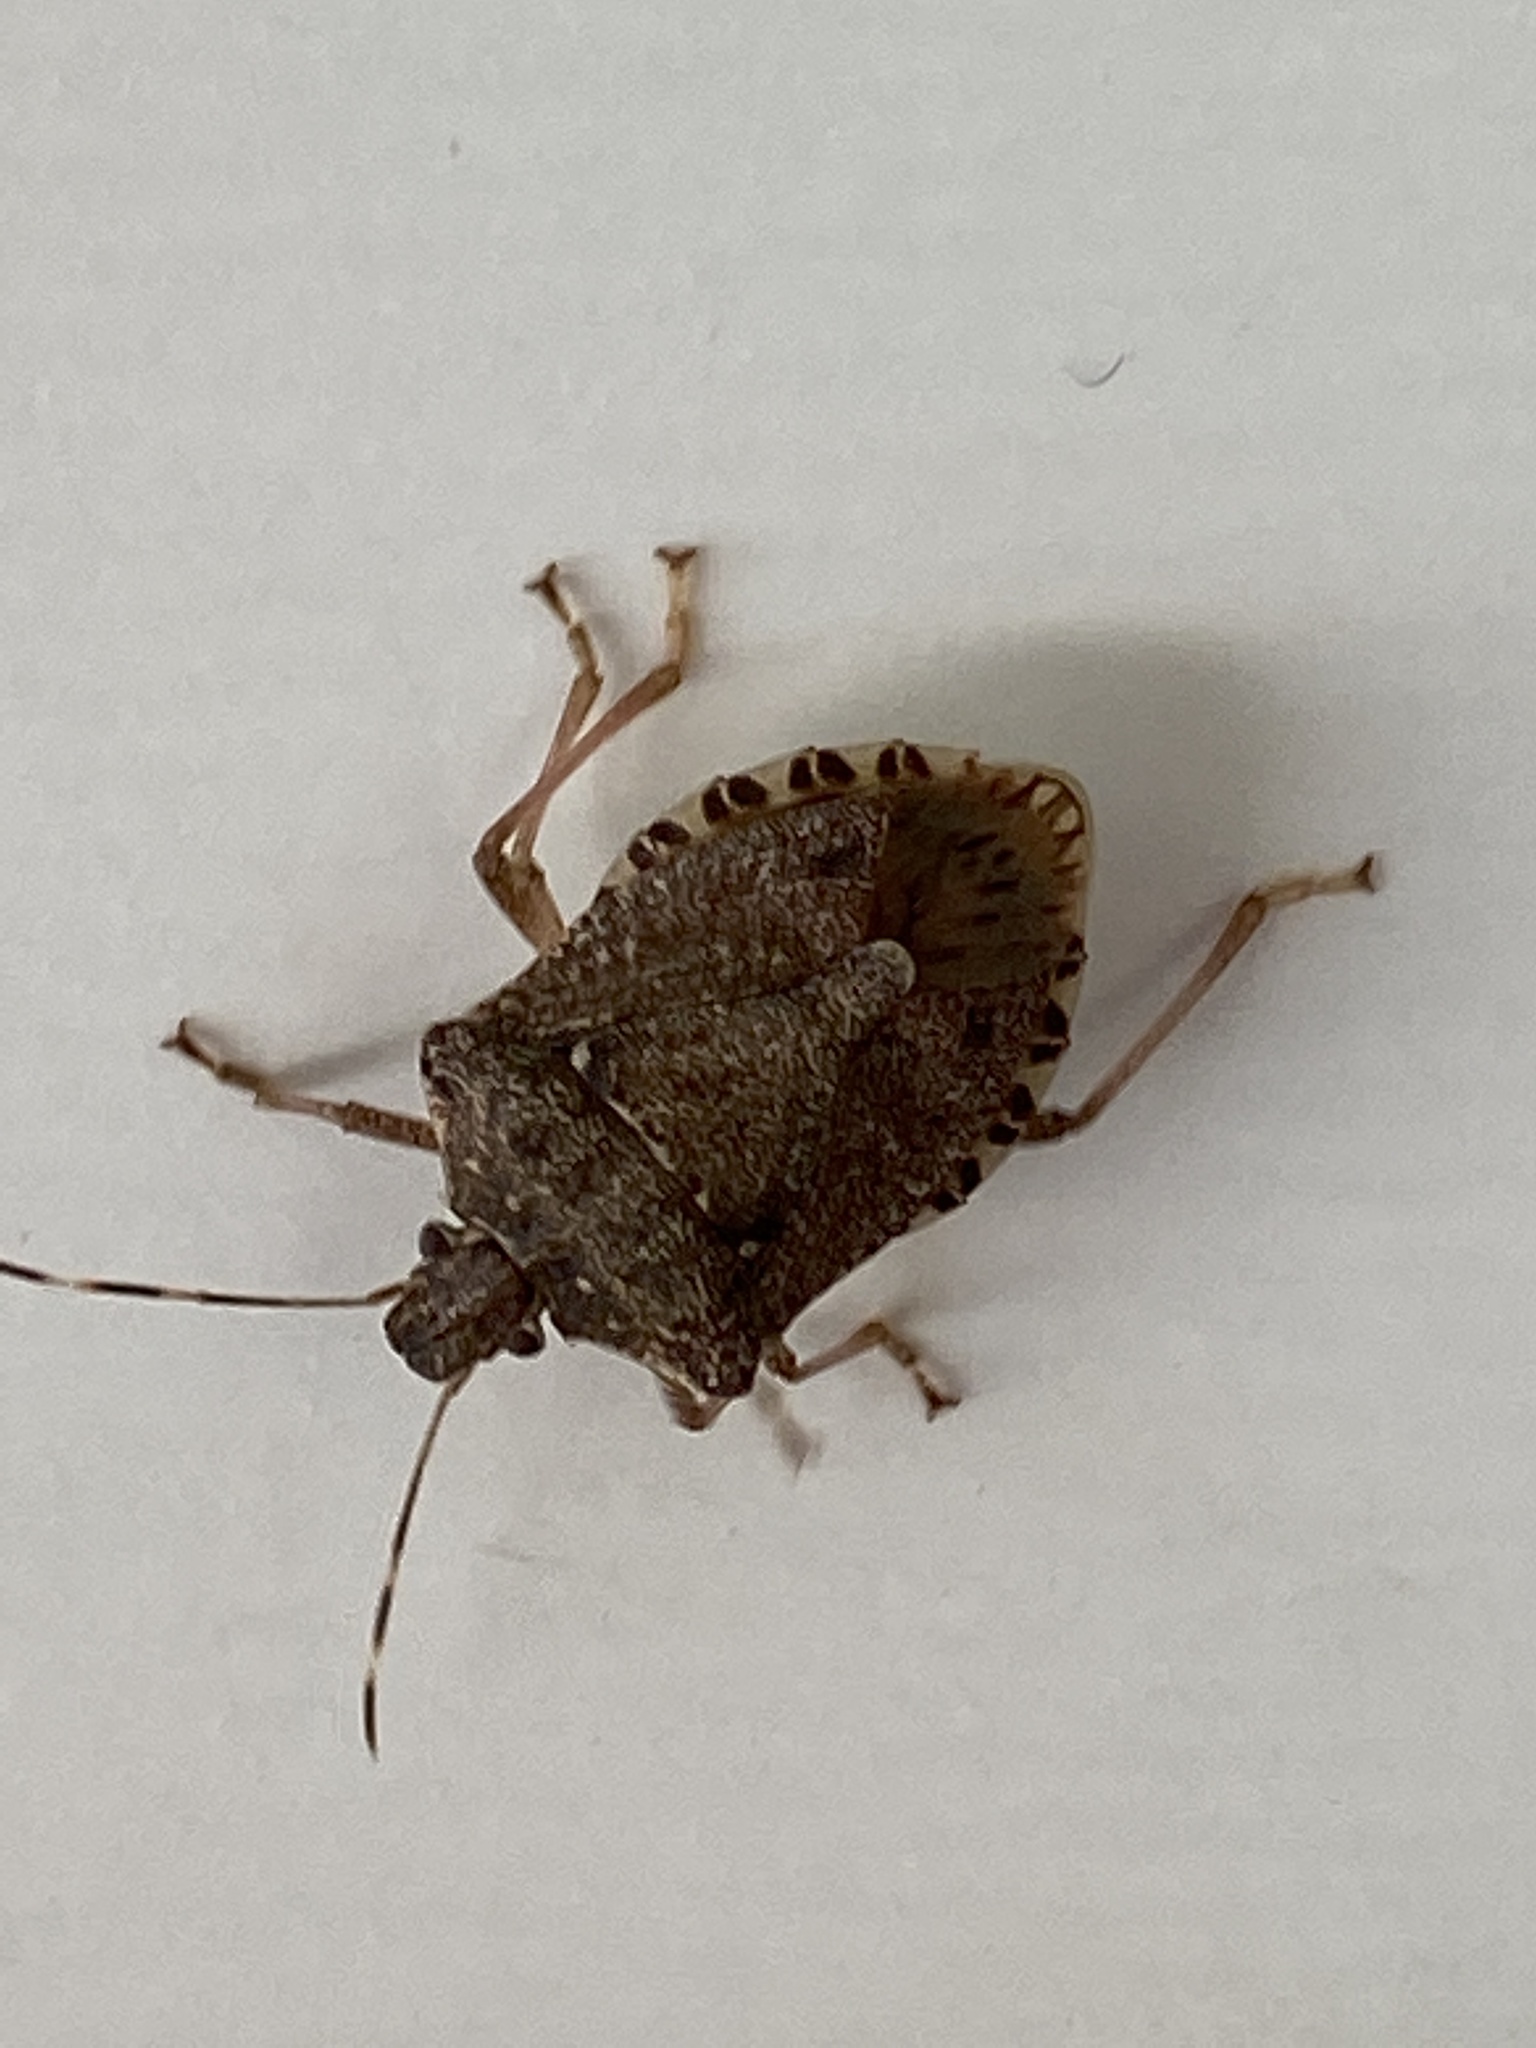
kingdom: Animalia
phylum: Arthropoda
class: Insecta
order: Hemiptera
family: Pentatomidae
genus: Halyomorpha
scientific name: Halyomorpha halys
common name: Brown marmorated stink bug
